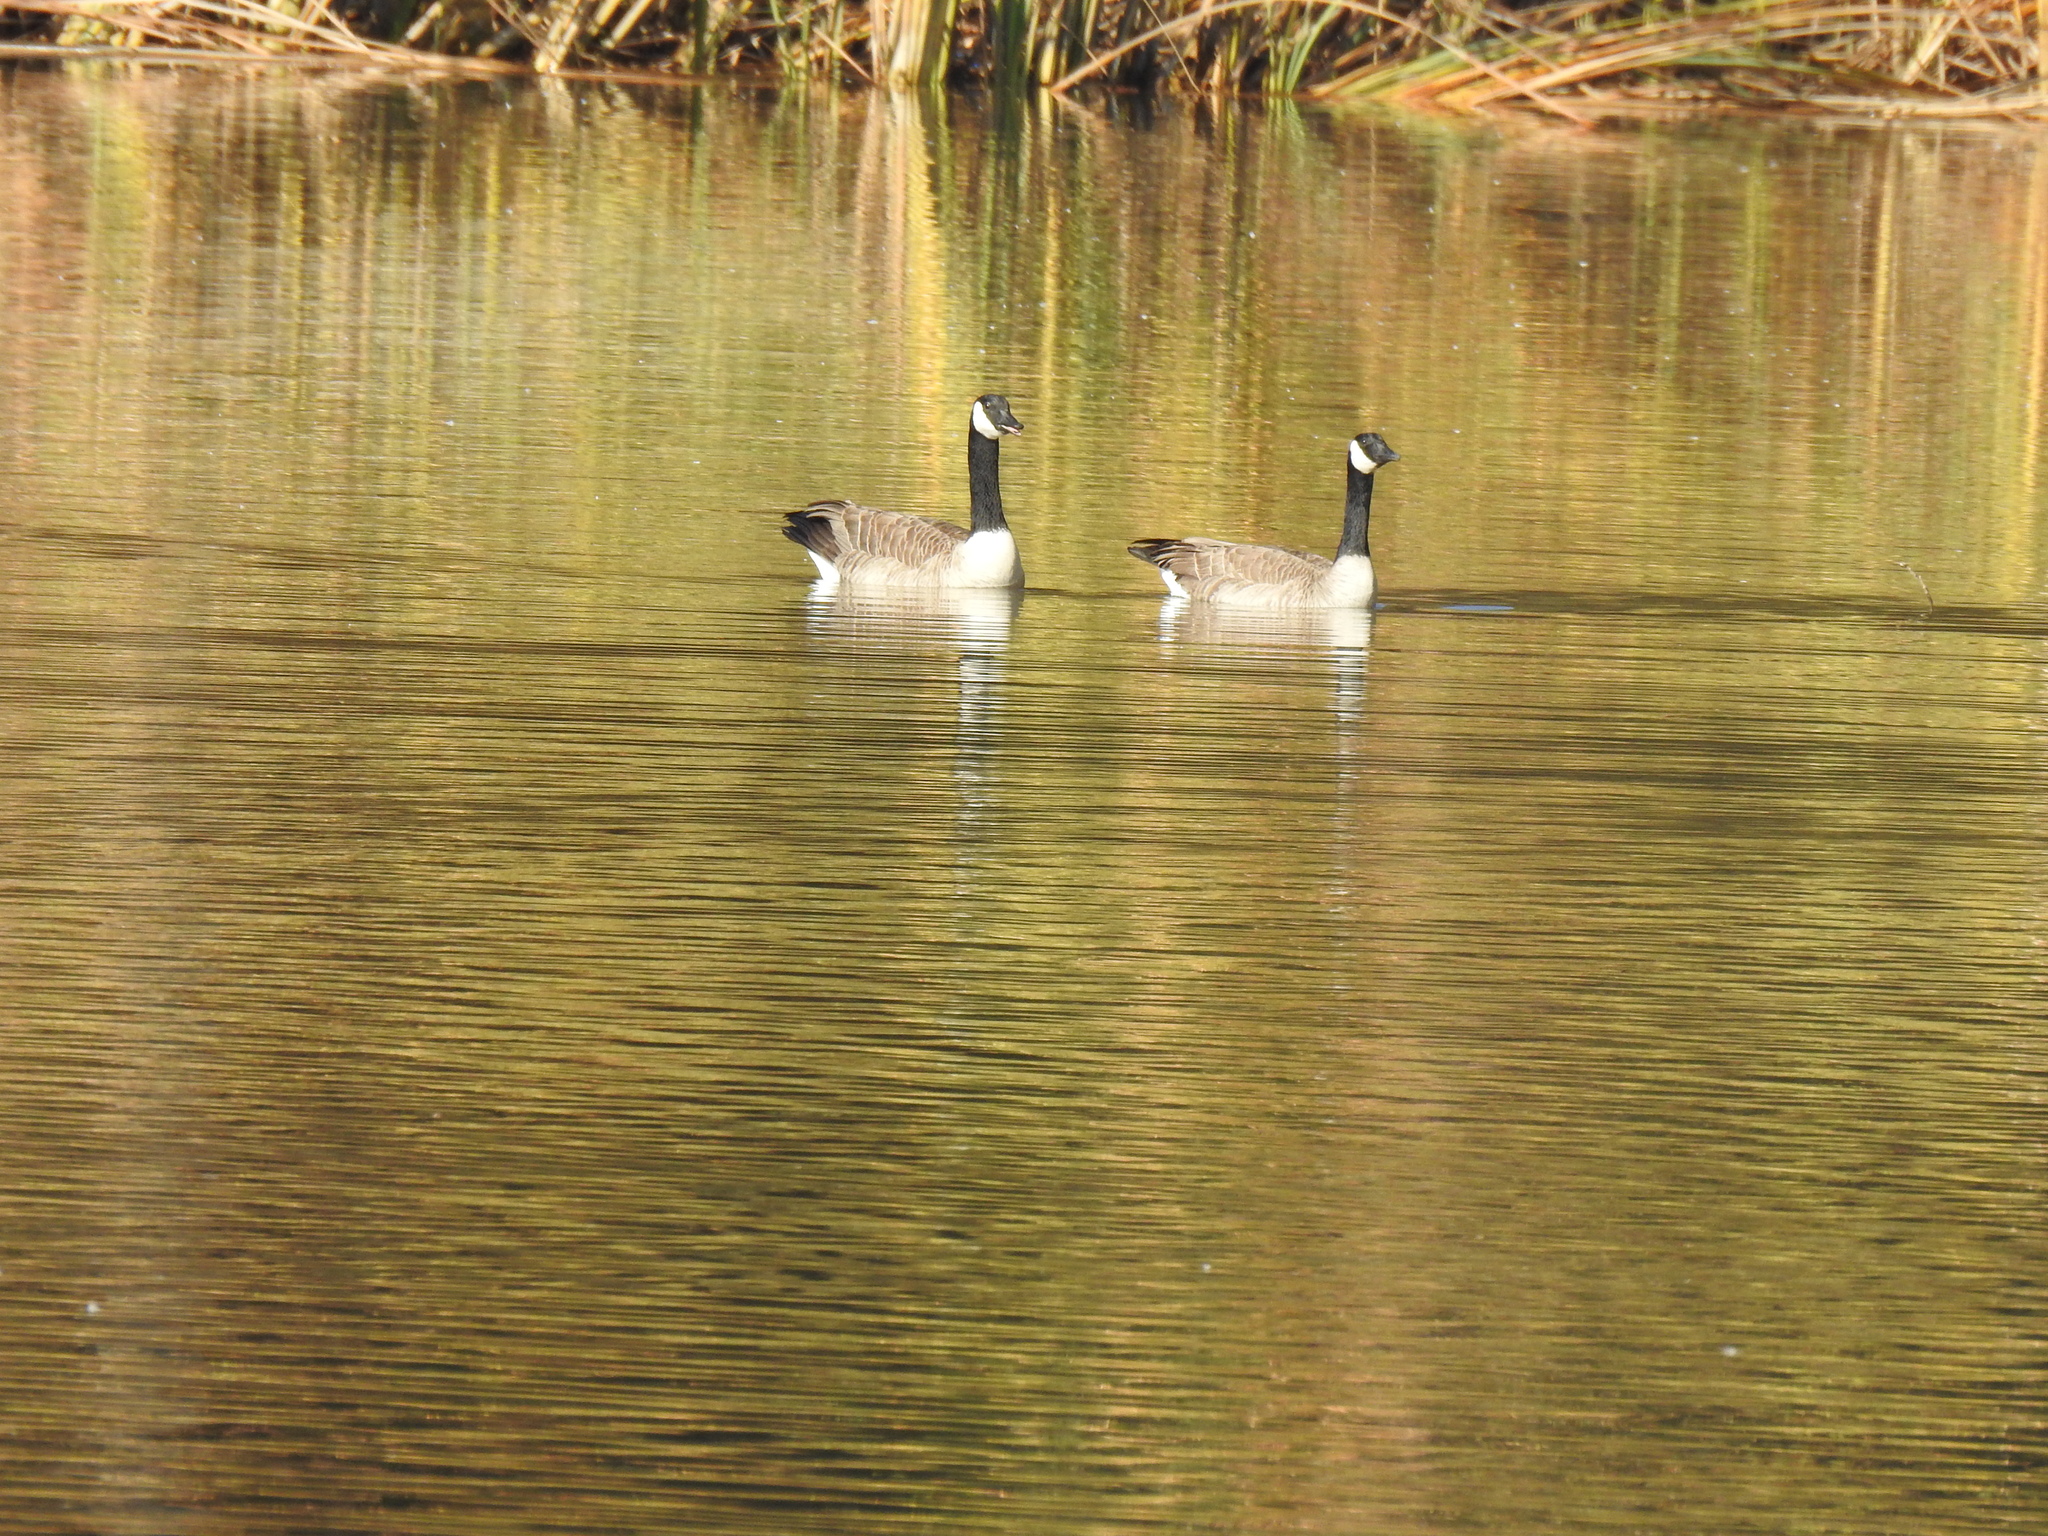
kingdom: Animalia
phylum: Chordata
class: Aves
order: Anseriformes
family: Anatidae
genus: Branta
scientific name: Branta canadensis
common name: Canada goose
